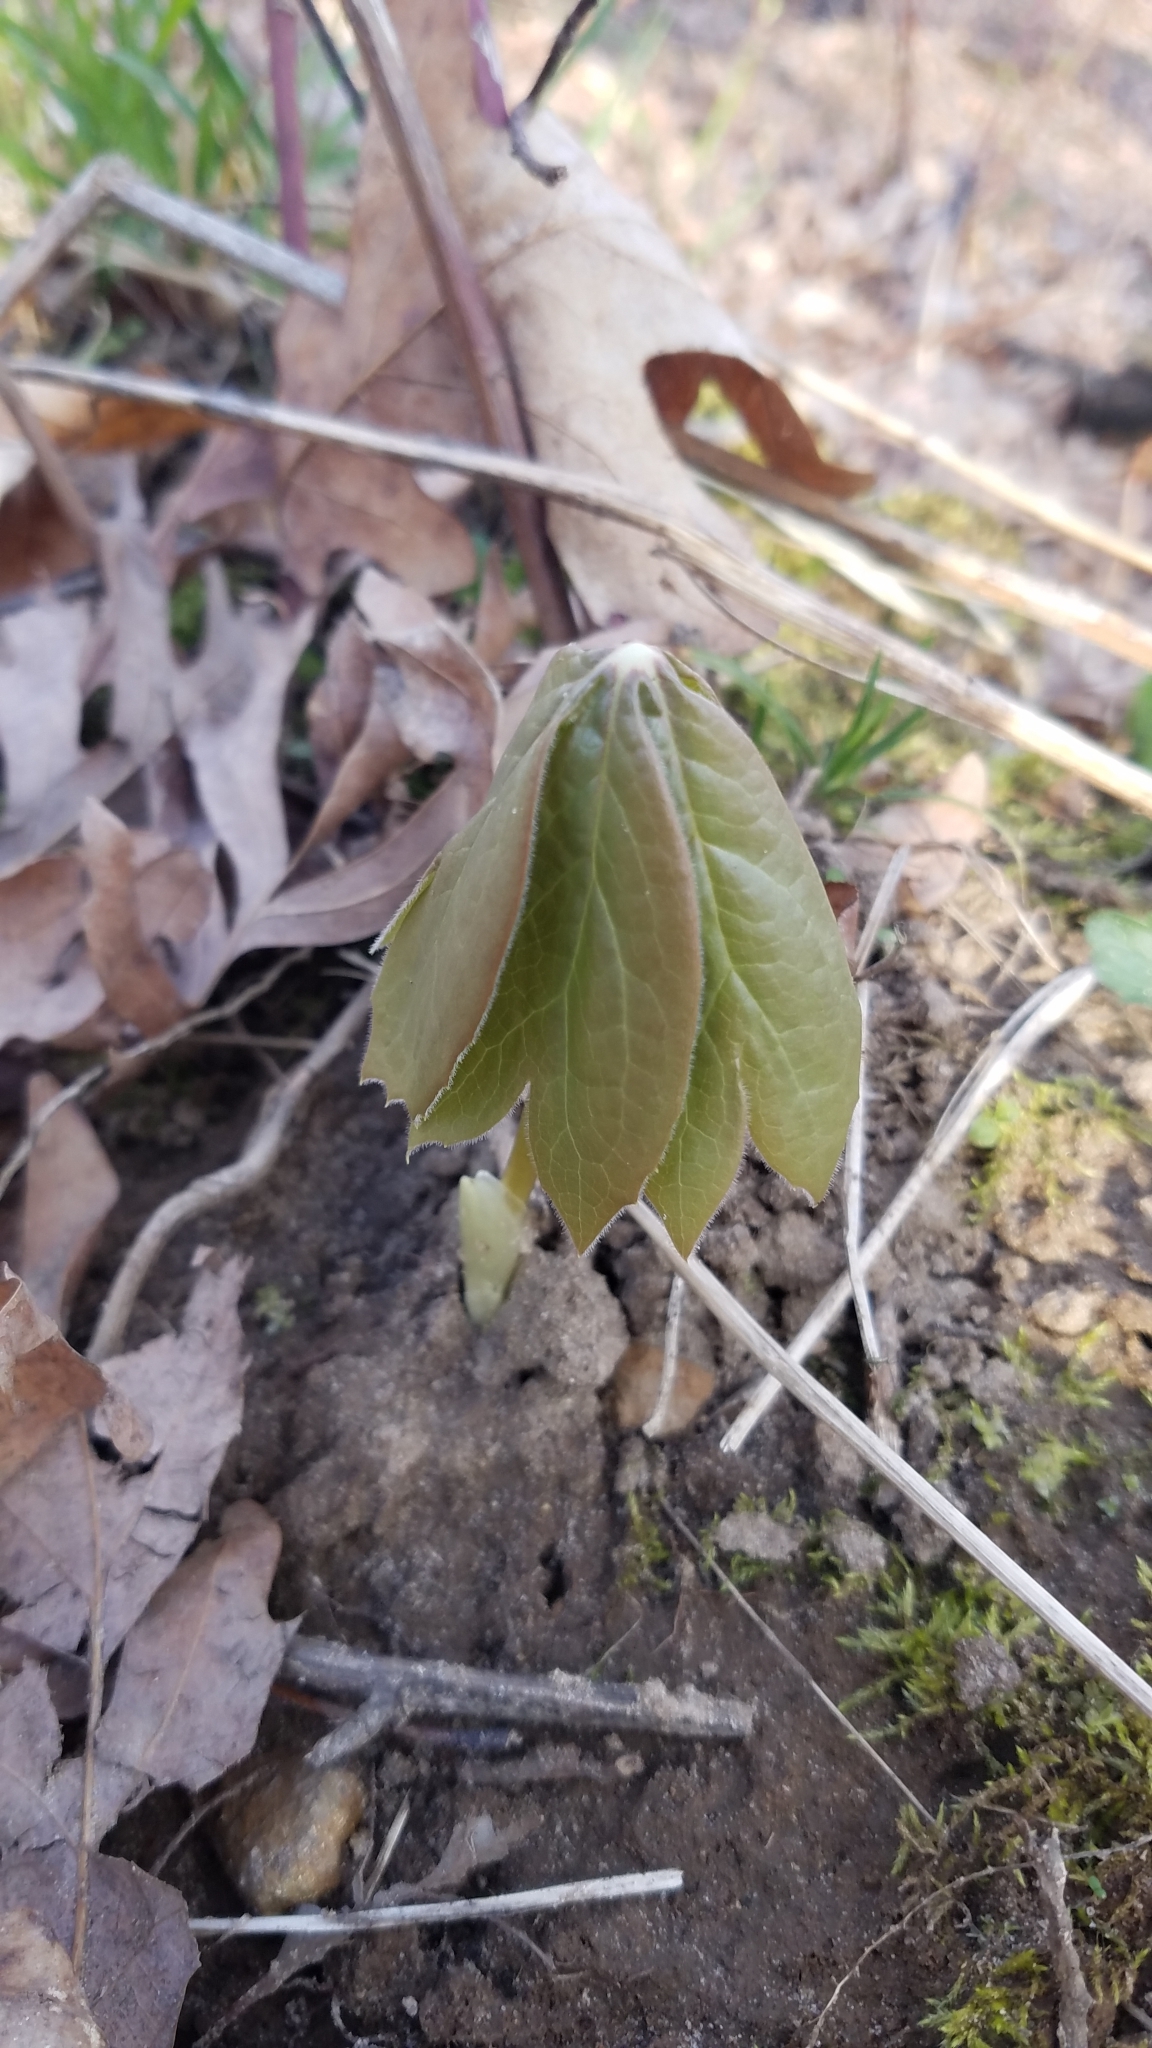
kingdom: Plantae
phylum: Tracheophyta
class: Magnoliopsida
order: Ranunculales
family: Berberidaceae
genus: Podophyllum
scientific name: Podophyllum peltatum
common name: Wild mandrake
